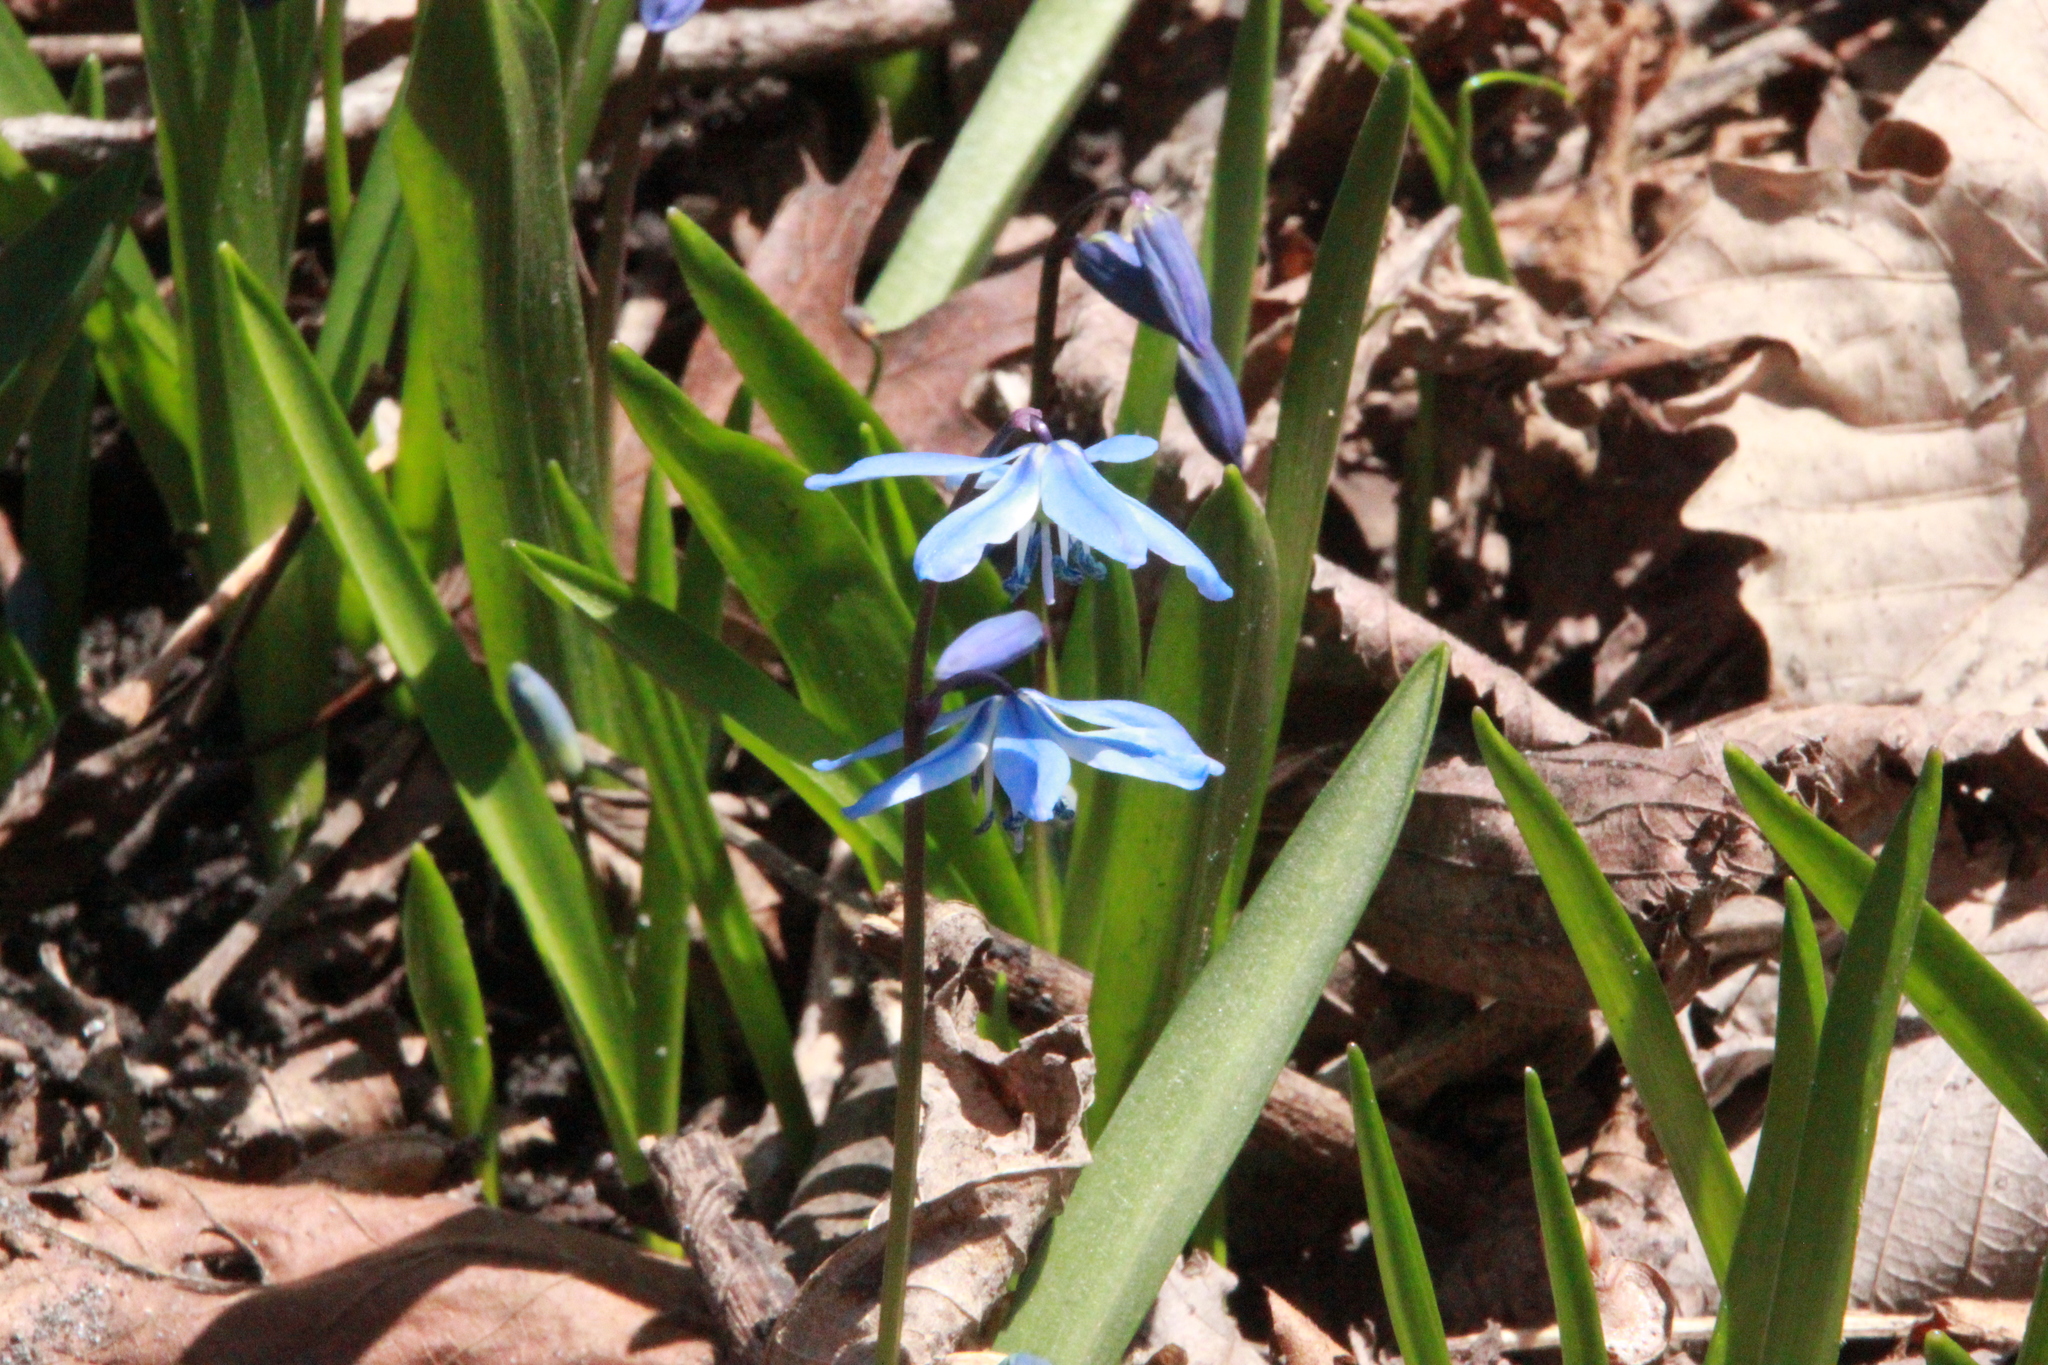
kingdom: Plantae
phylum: Tracheophyta
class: Liliopsida
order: Asparagales
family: Asparagaceae
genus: Scilla
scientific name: Scilla siberica
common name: Siberian squill
